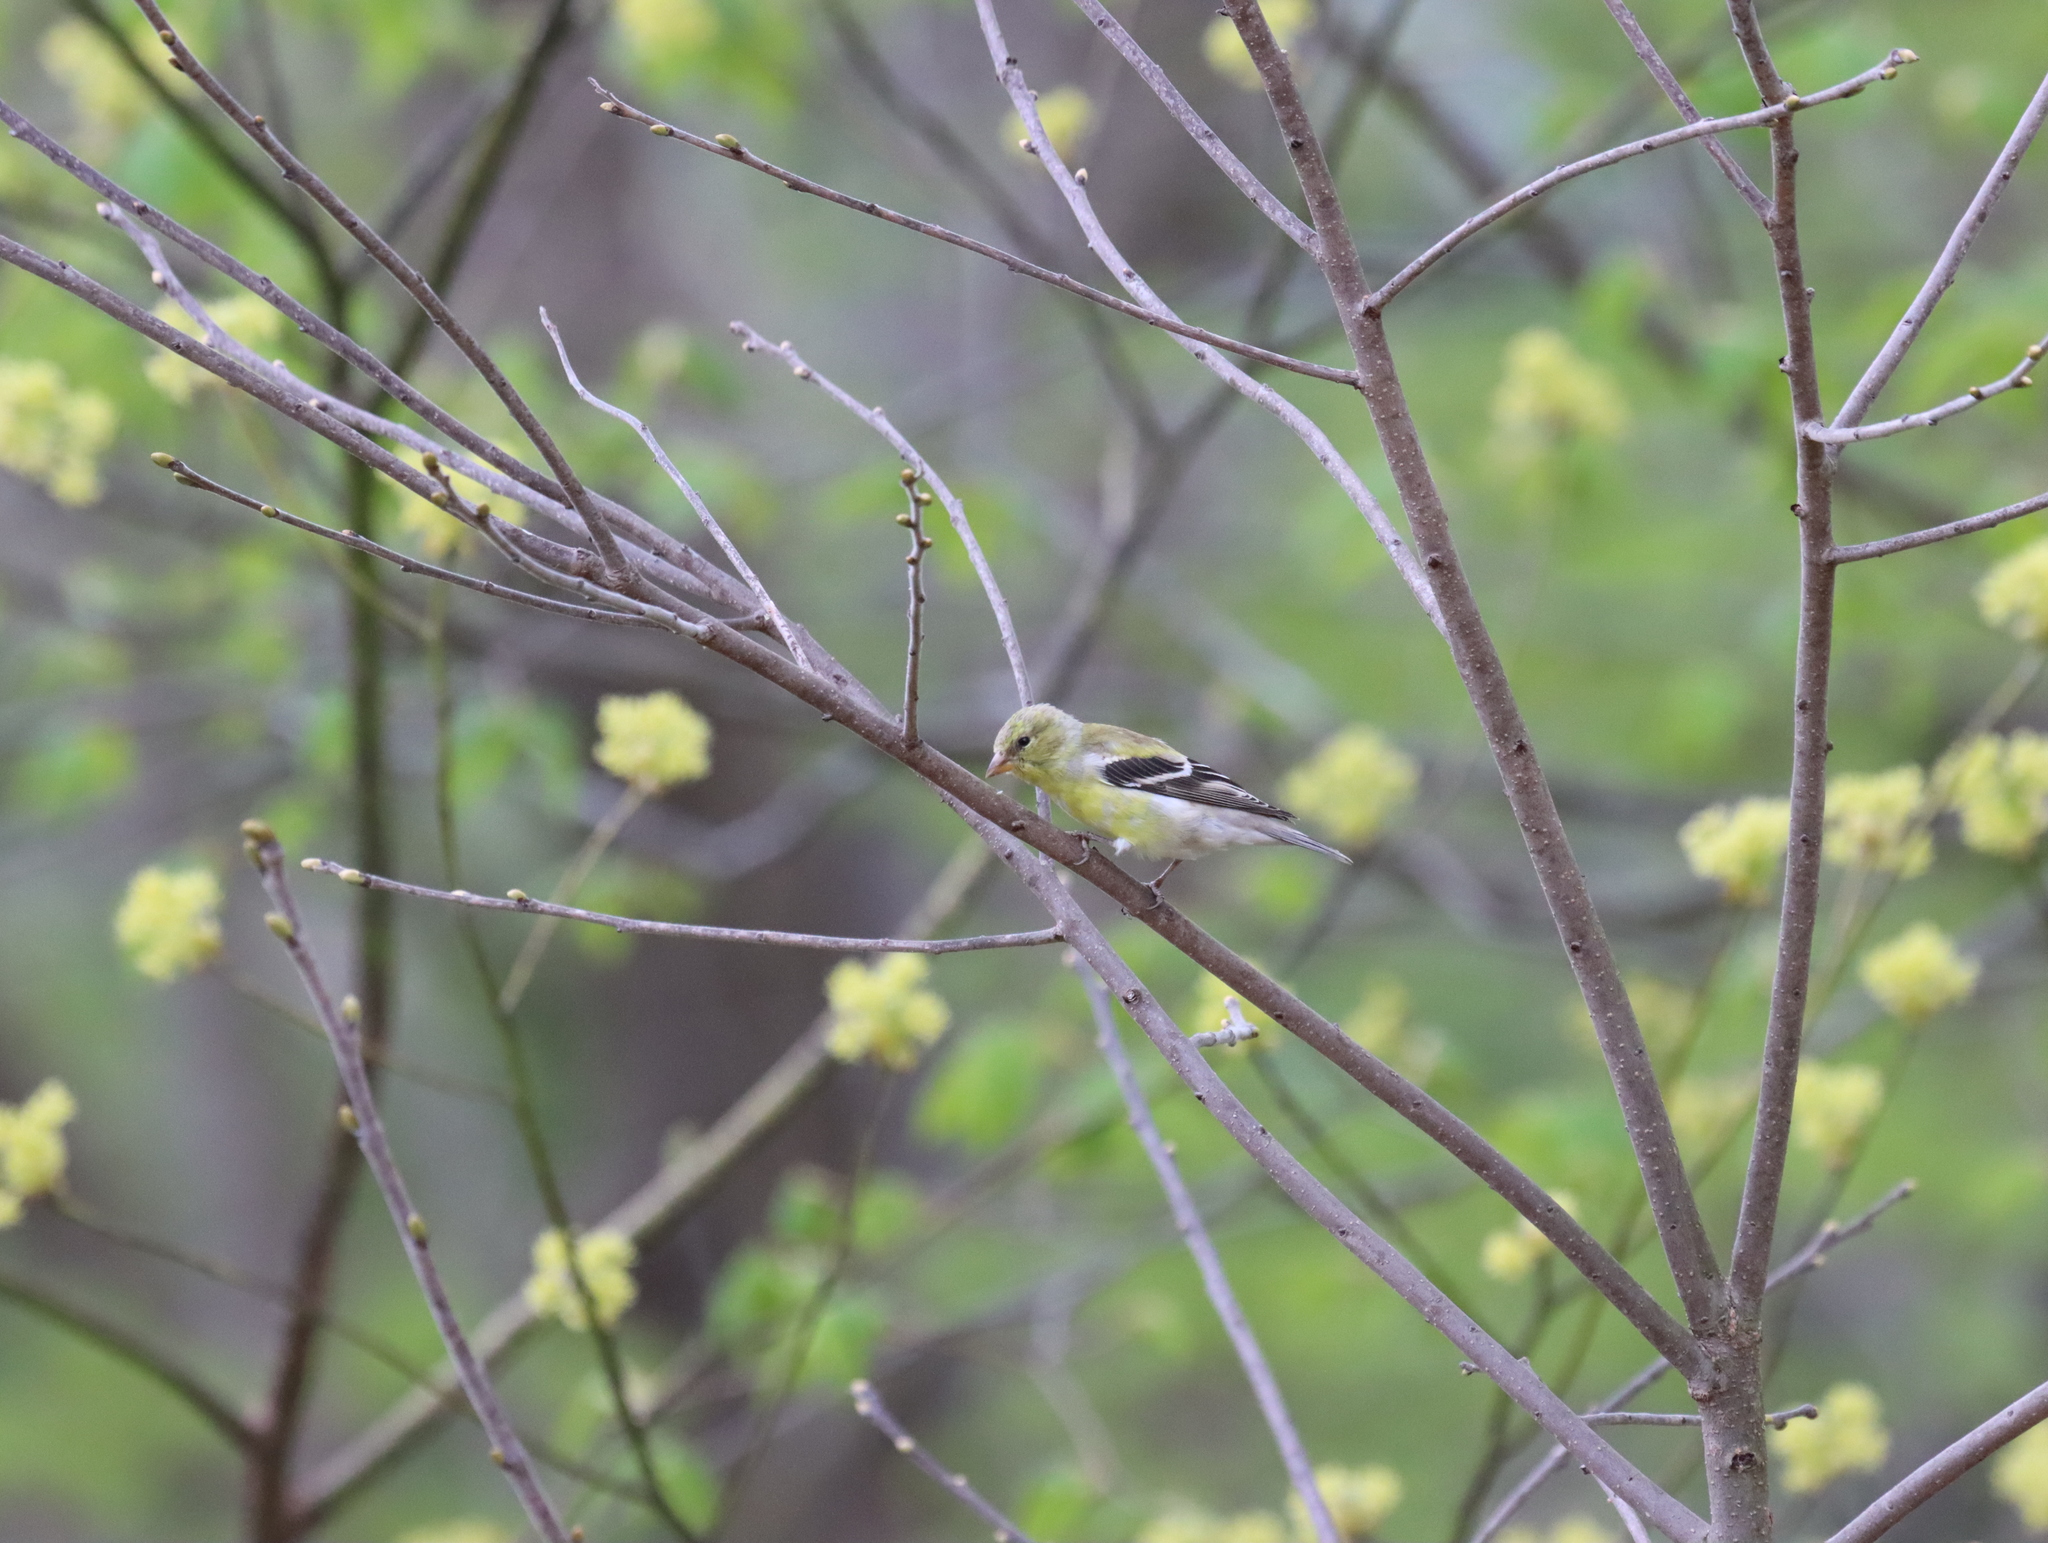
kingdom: Animalia
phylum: Chordata
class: Aves
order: Passeriformes
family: Fringillidae
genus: Spinus
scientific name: Spinus tristis
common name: American goldfinch
